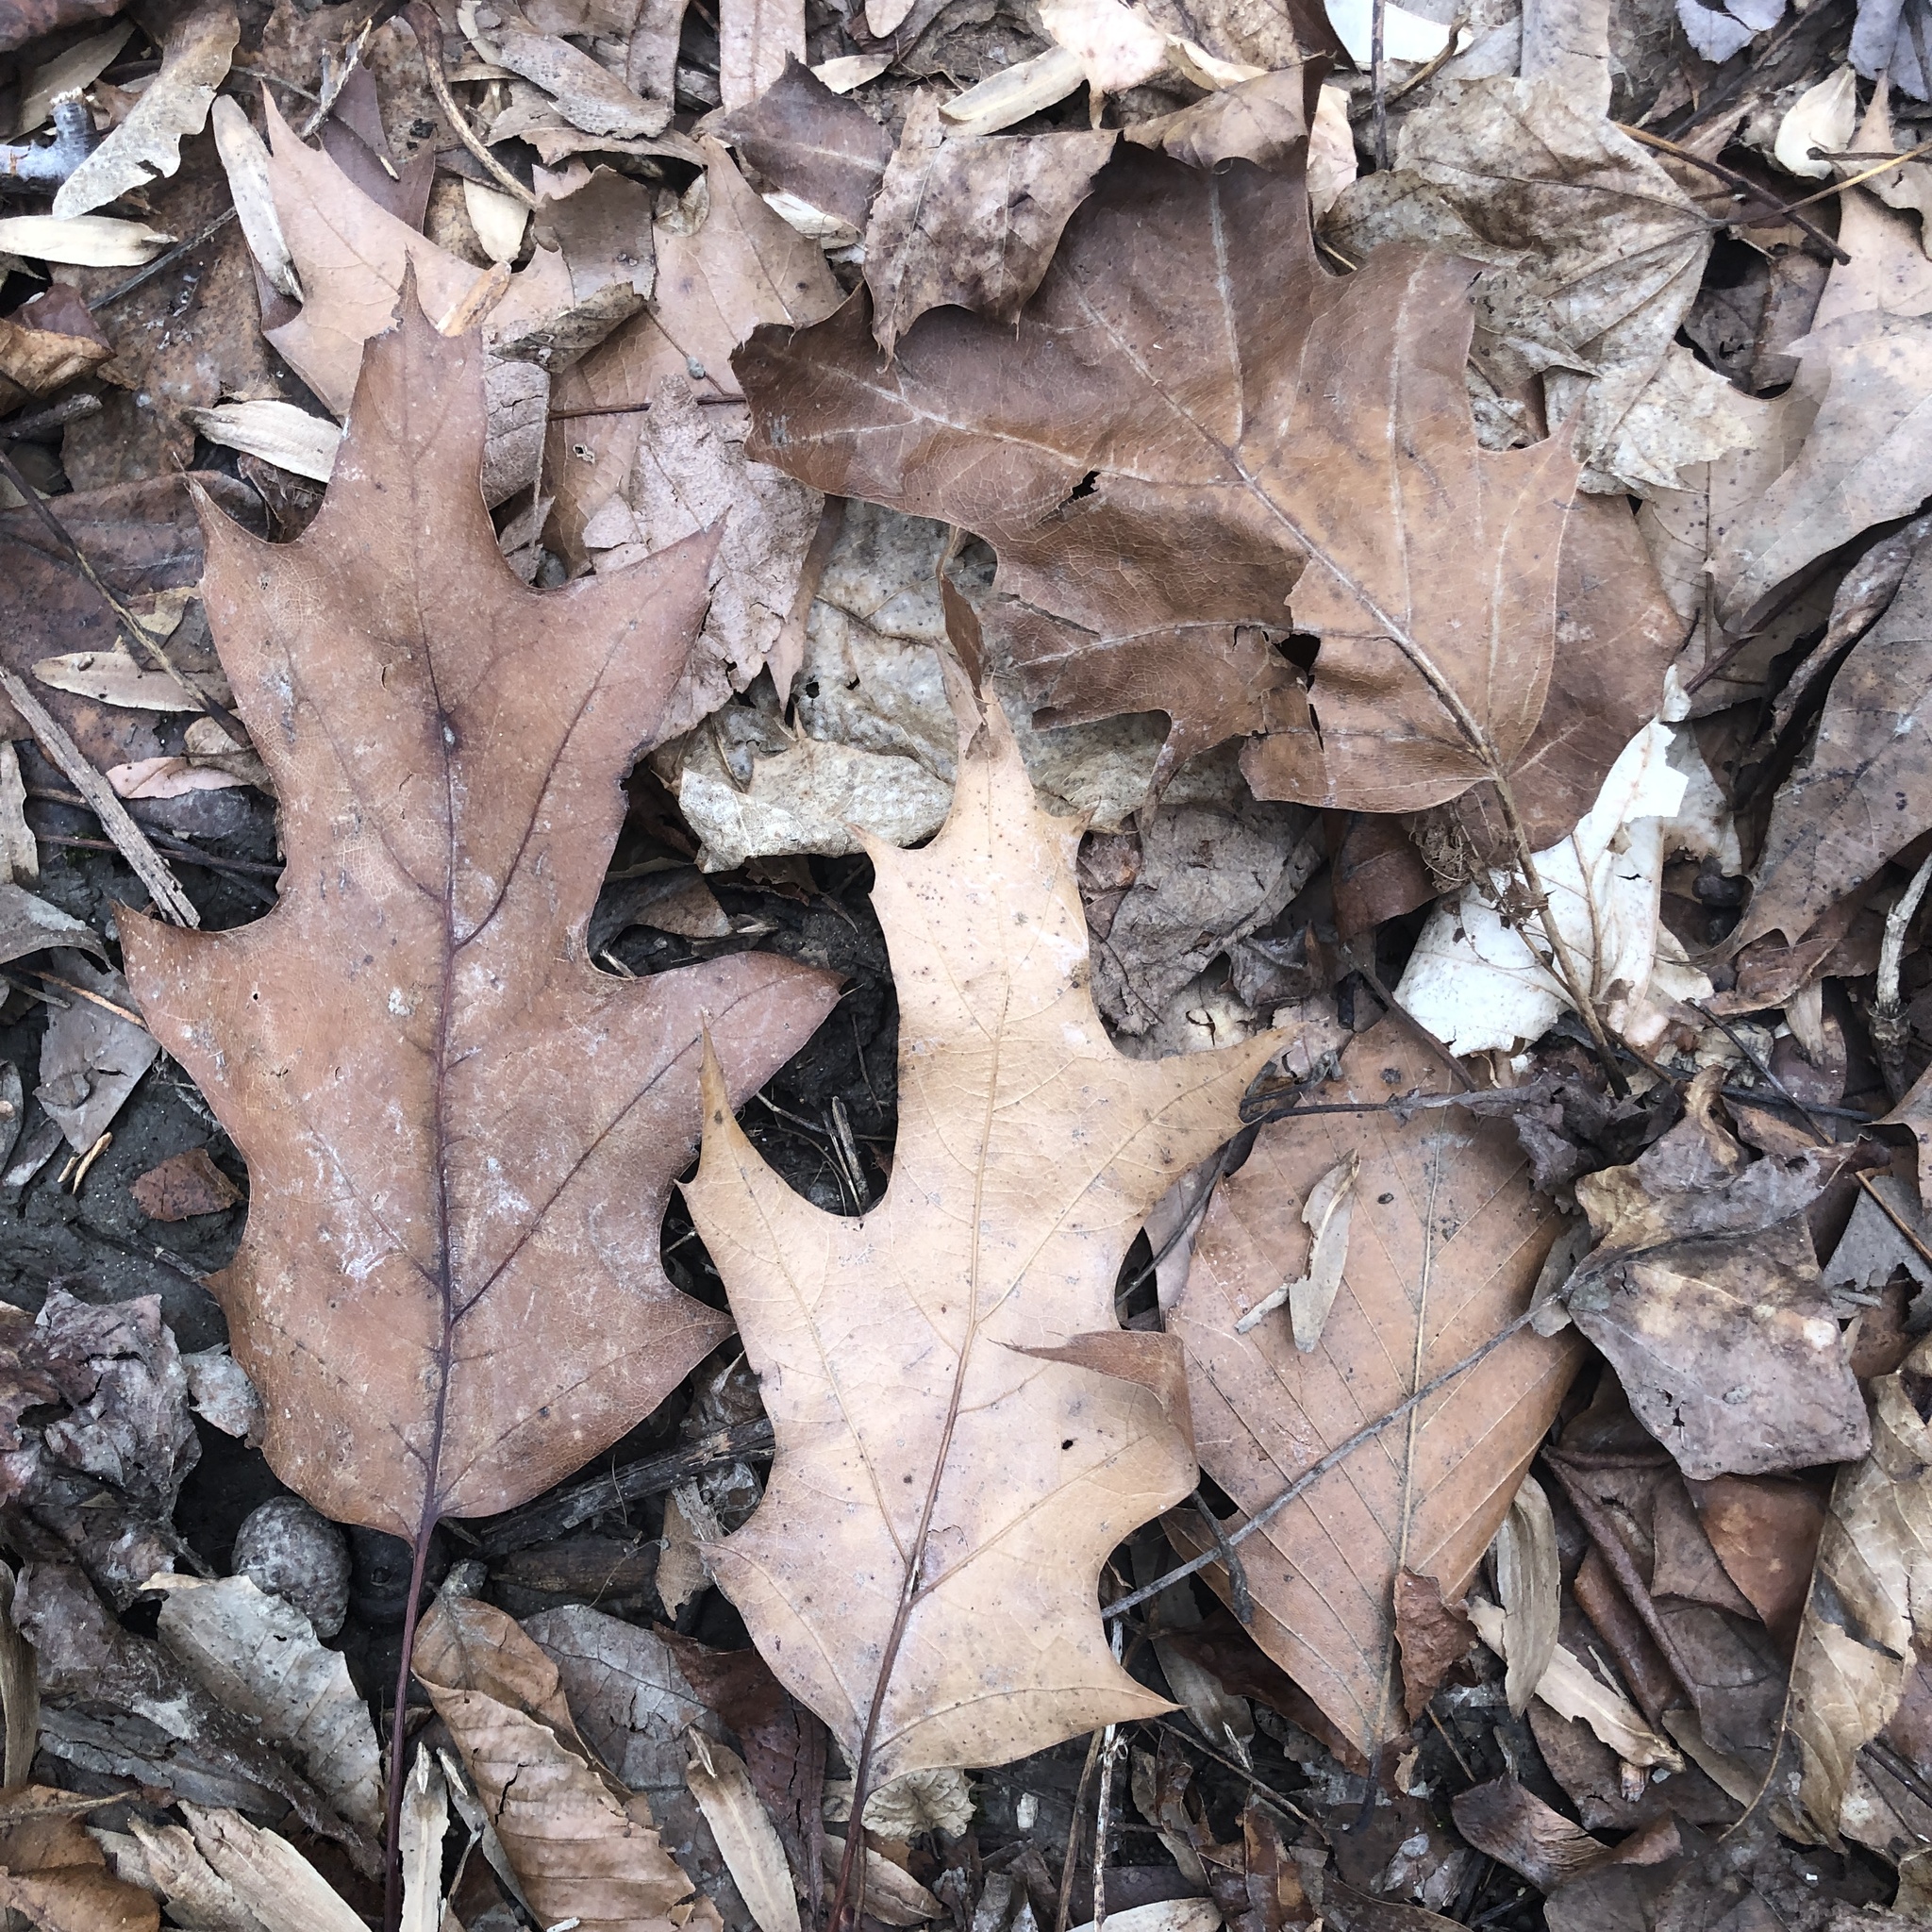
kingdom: Plantae
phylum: Tracheophyta
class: Magnoliopsida
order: Fagales
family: Fagaceae
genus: Quercus
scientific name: Quercus rubra
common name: Red oak
